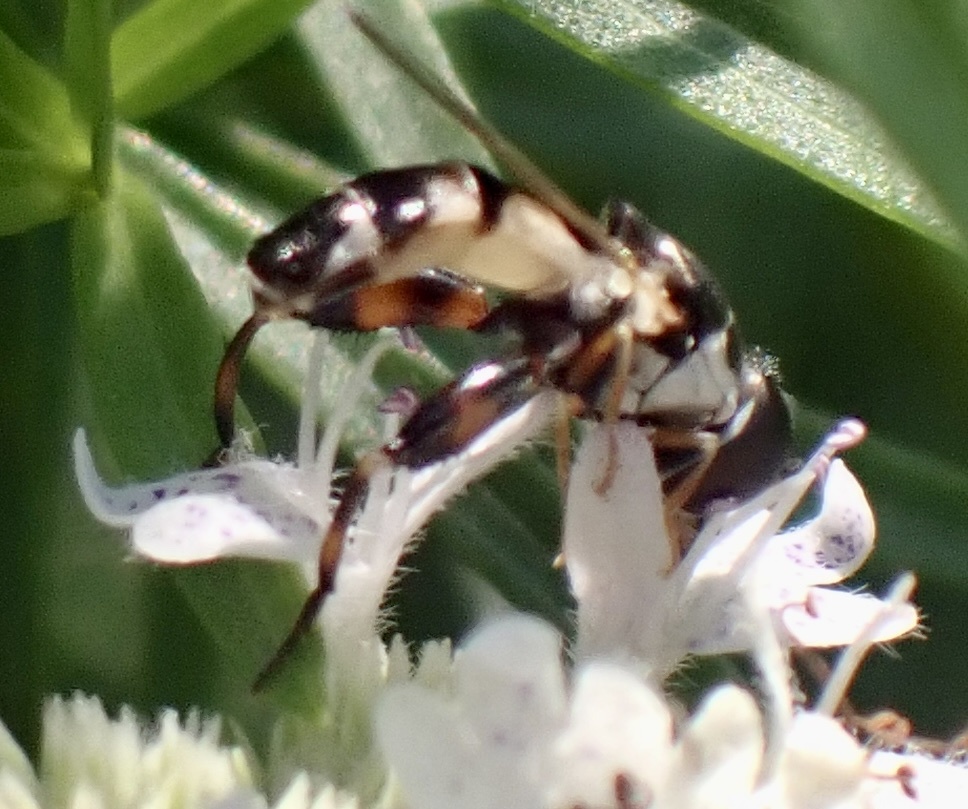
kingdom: Animalia
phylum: Arthropoda
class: Insecta
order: Diptera
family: Syrphidae
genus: Syritta
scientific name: Syritta flaviventris
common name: Syrphid fly
